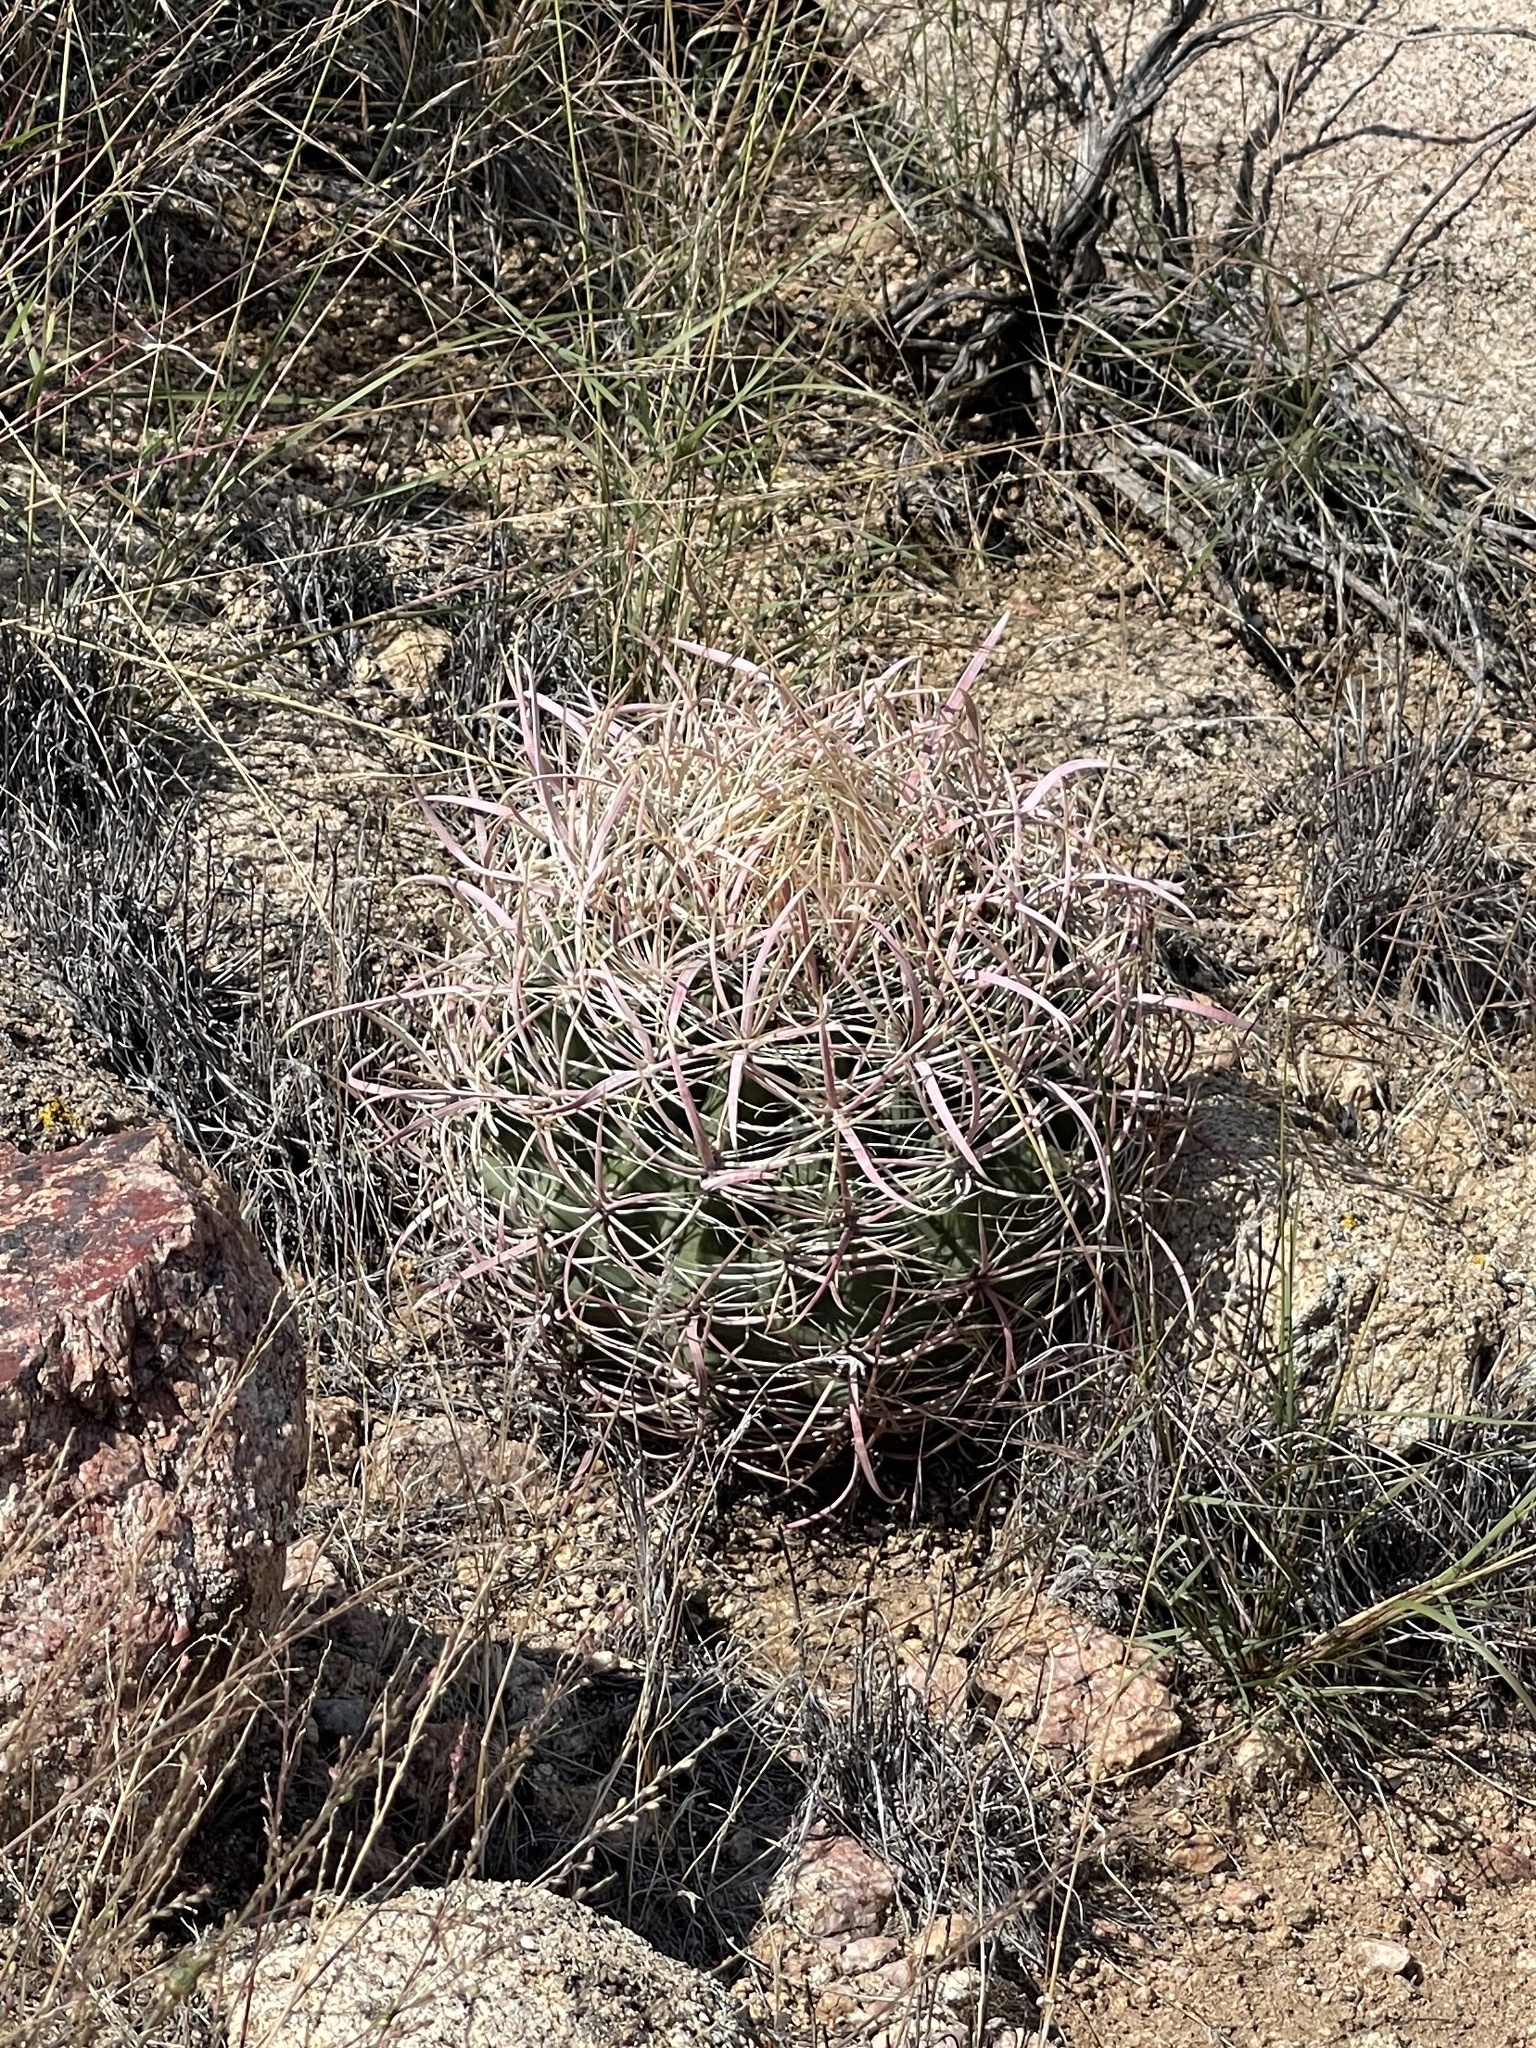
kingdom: Plantae
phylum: Tracheophyta
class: Magnoliopsida
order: Caryophyllales
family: Cactaceae
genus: Ferocactus
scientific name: Ferocactus cylindraceus
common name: California barrel cactus
